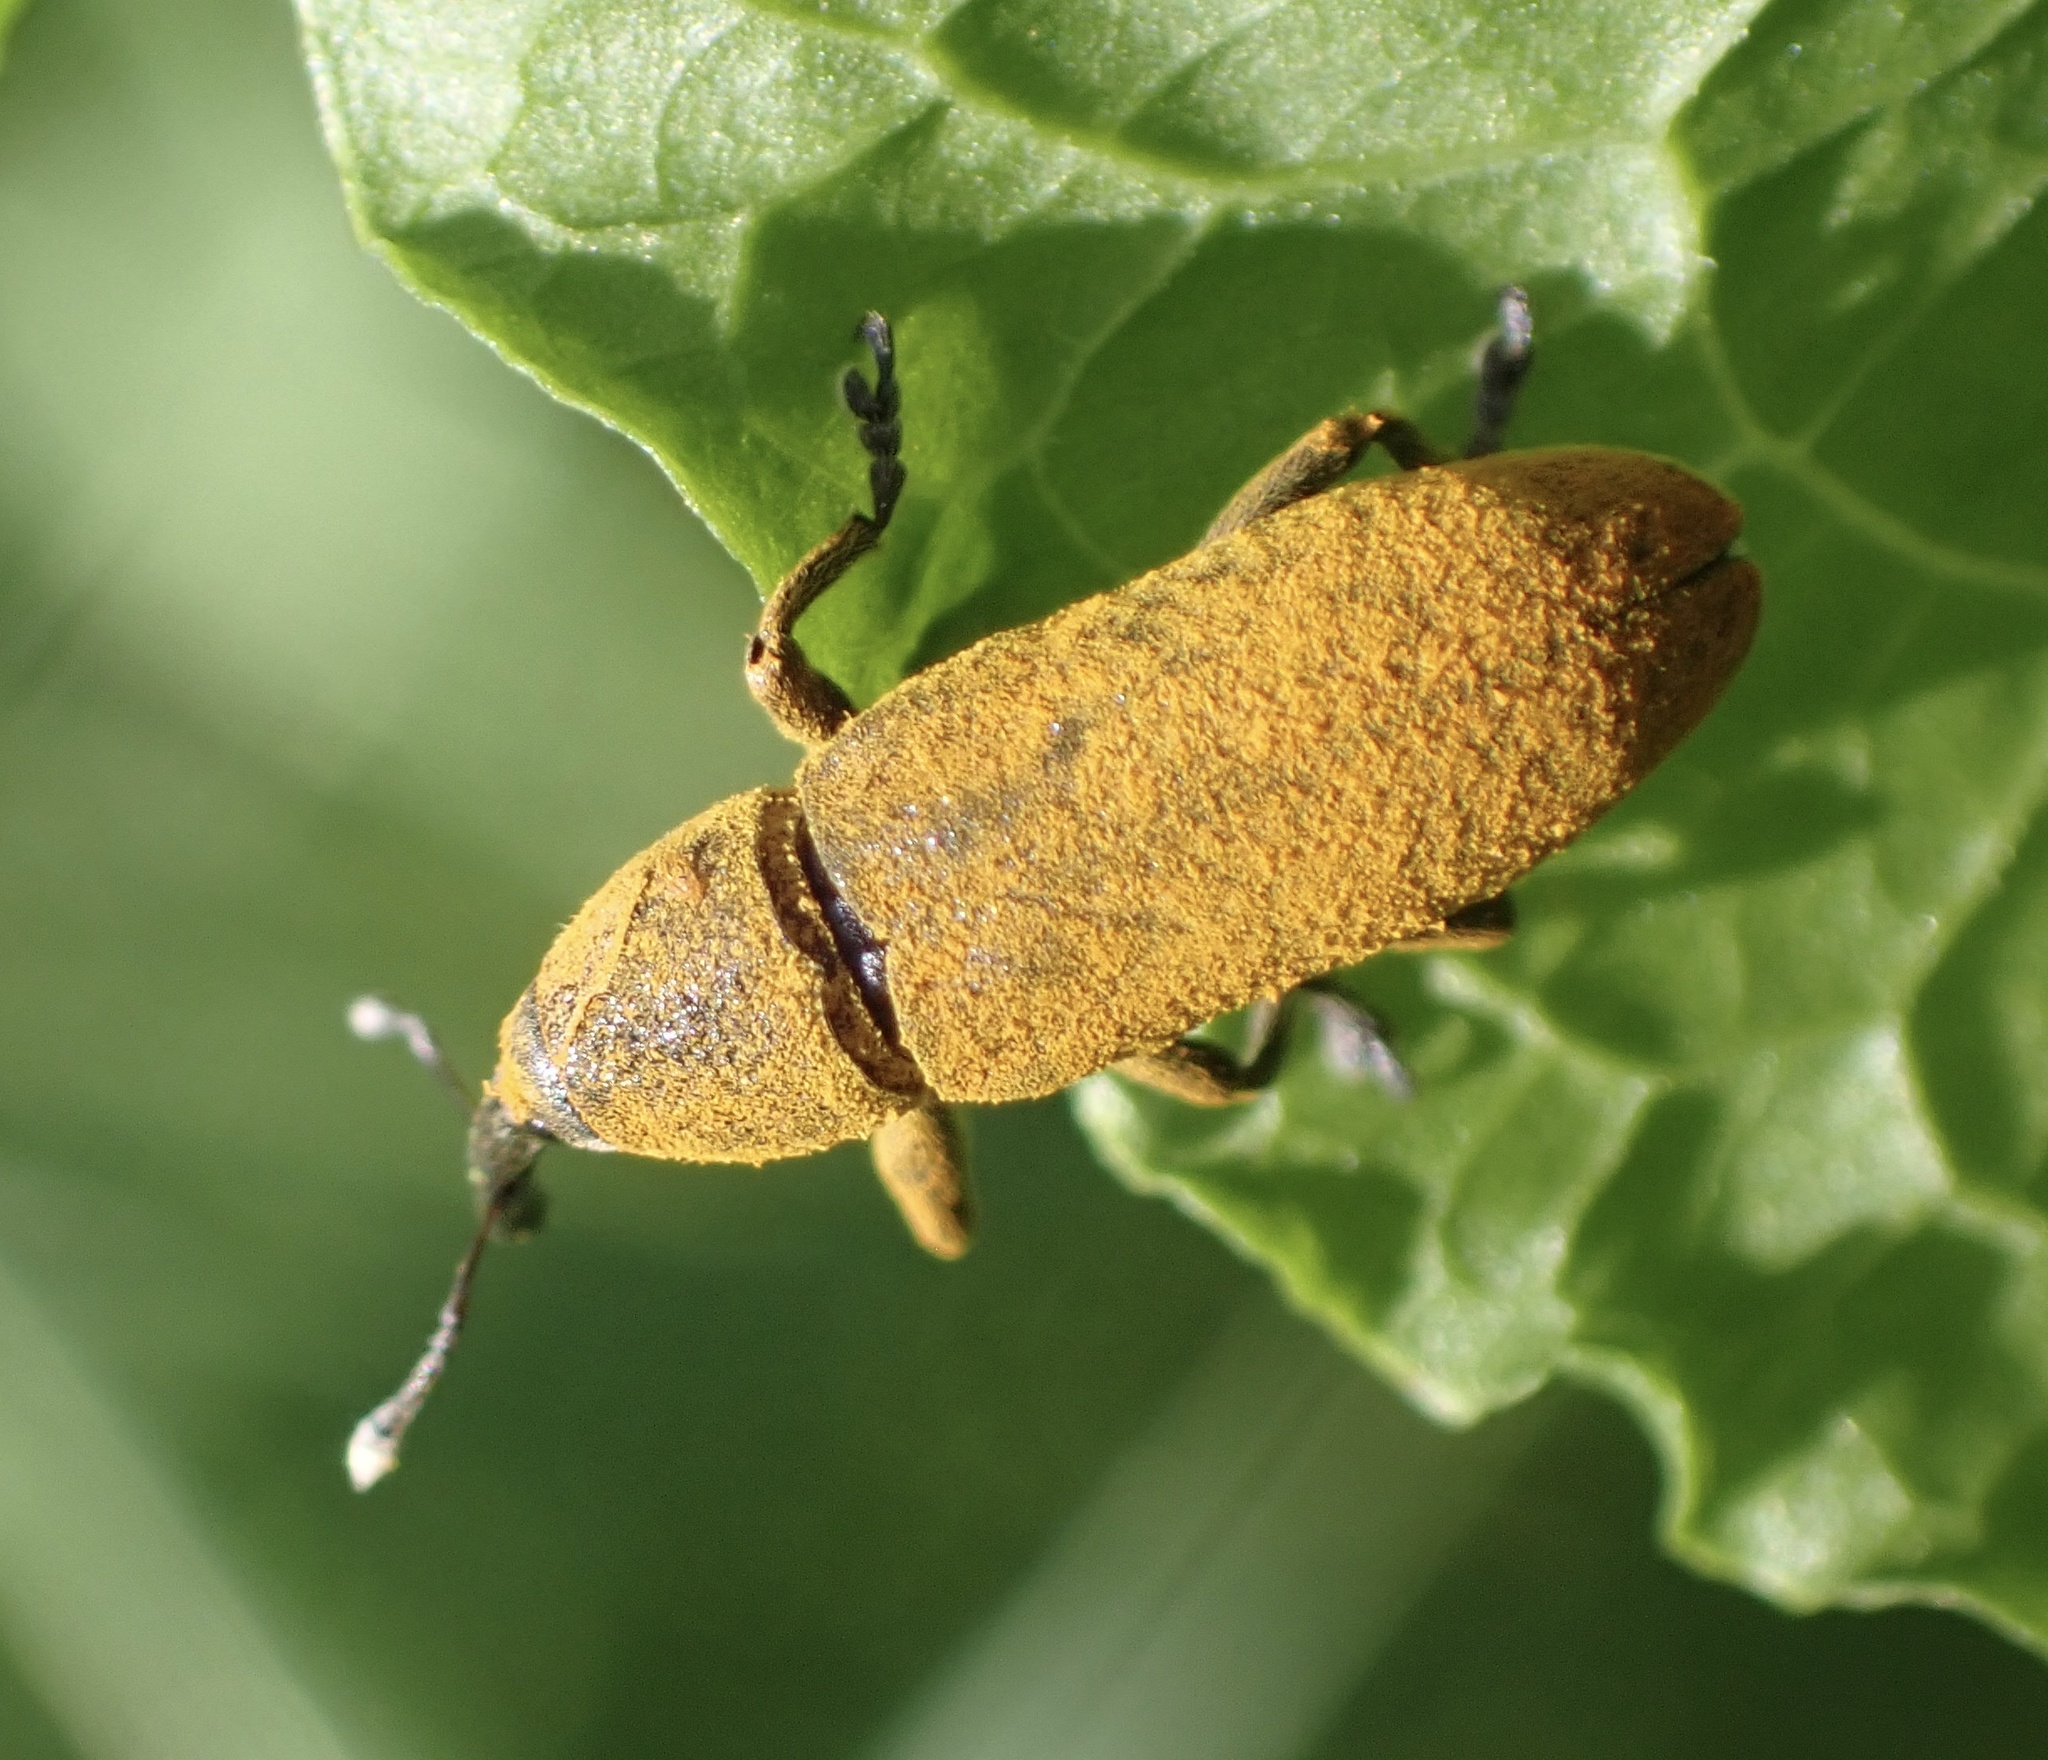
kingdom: Animalia
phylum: Arthropoda
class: Insecta
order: Coleoptera
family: Curculionidae
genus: Lixus
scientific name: Lixus bardanae
